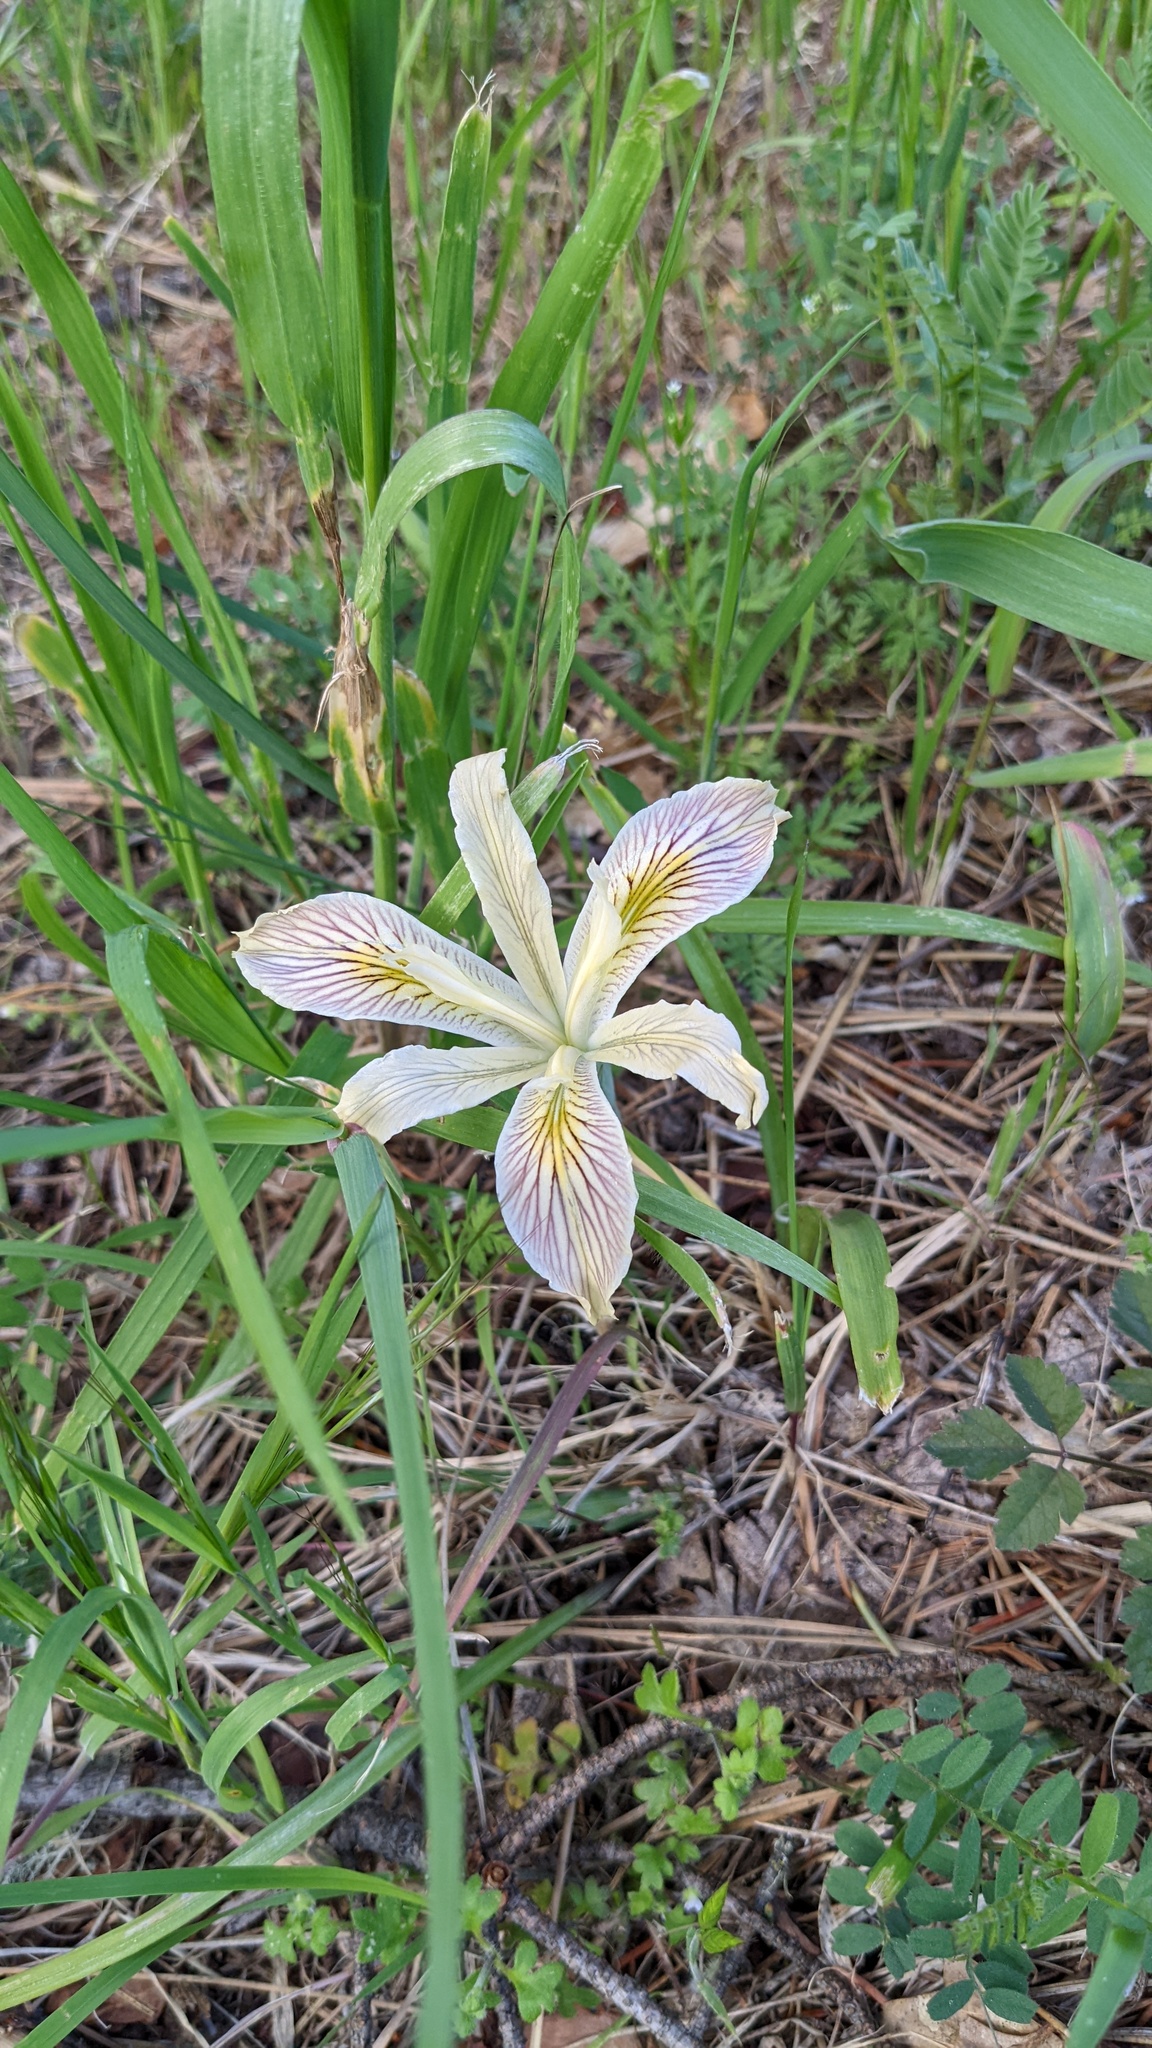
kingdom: Plantae
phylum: Tracheophyta
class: Liliopsida
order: Asparagales
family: Iridaceae
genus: Iris
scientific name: Iris chrysophylla
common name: Yellow-leaf iris
